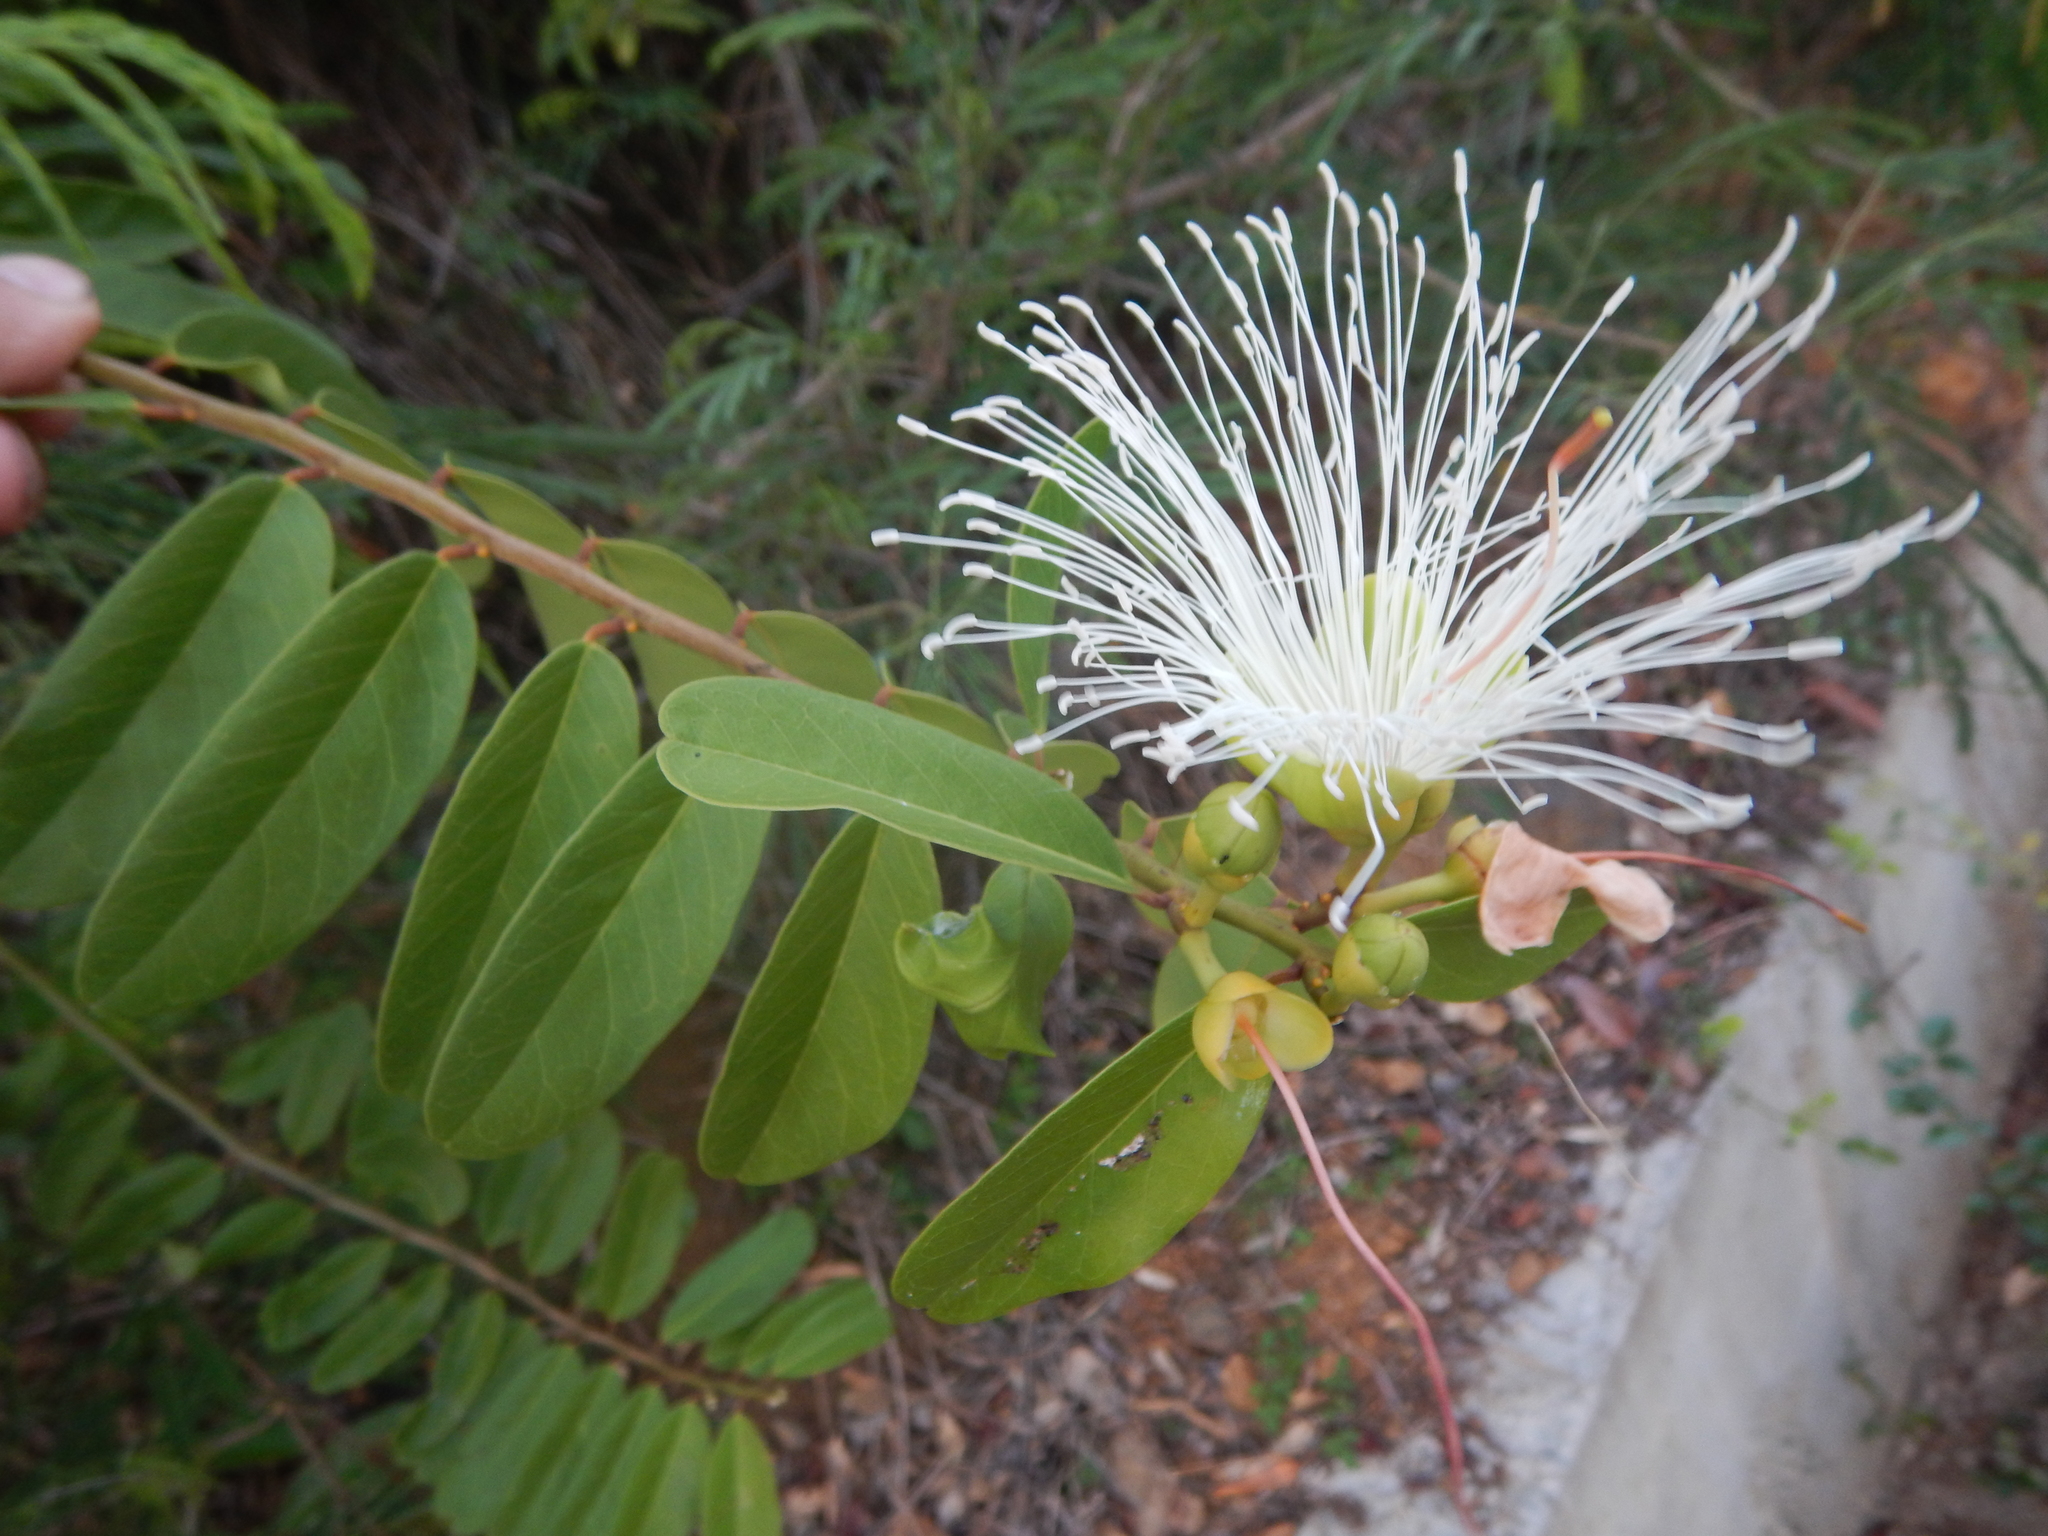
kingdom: Plantae
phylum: Tracheophyta
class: Magnoliopsida
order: Brassicales
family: Capparaceae
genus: Cynophalla
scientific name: Cynophalla flexuosa
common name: Capertree
